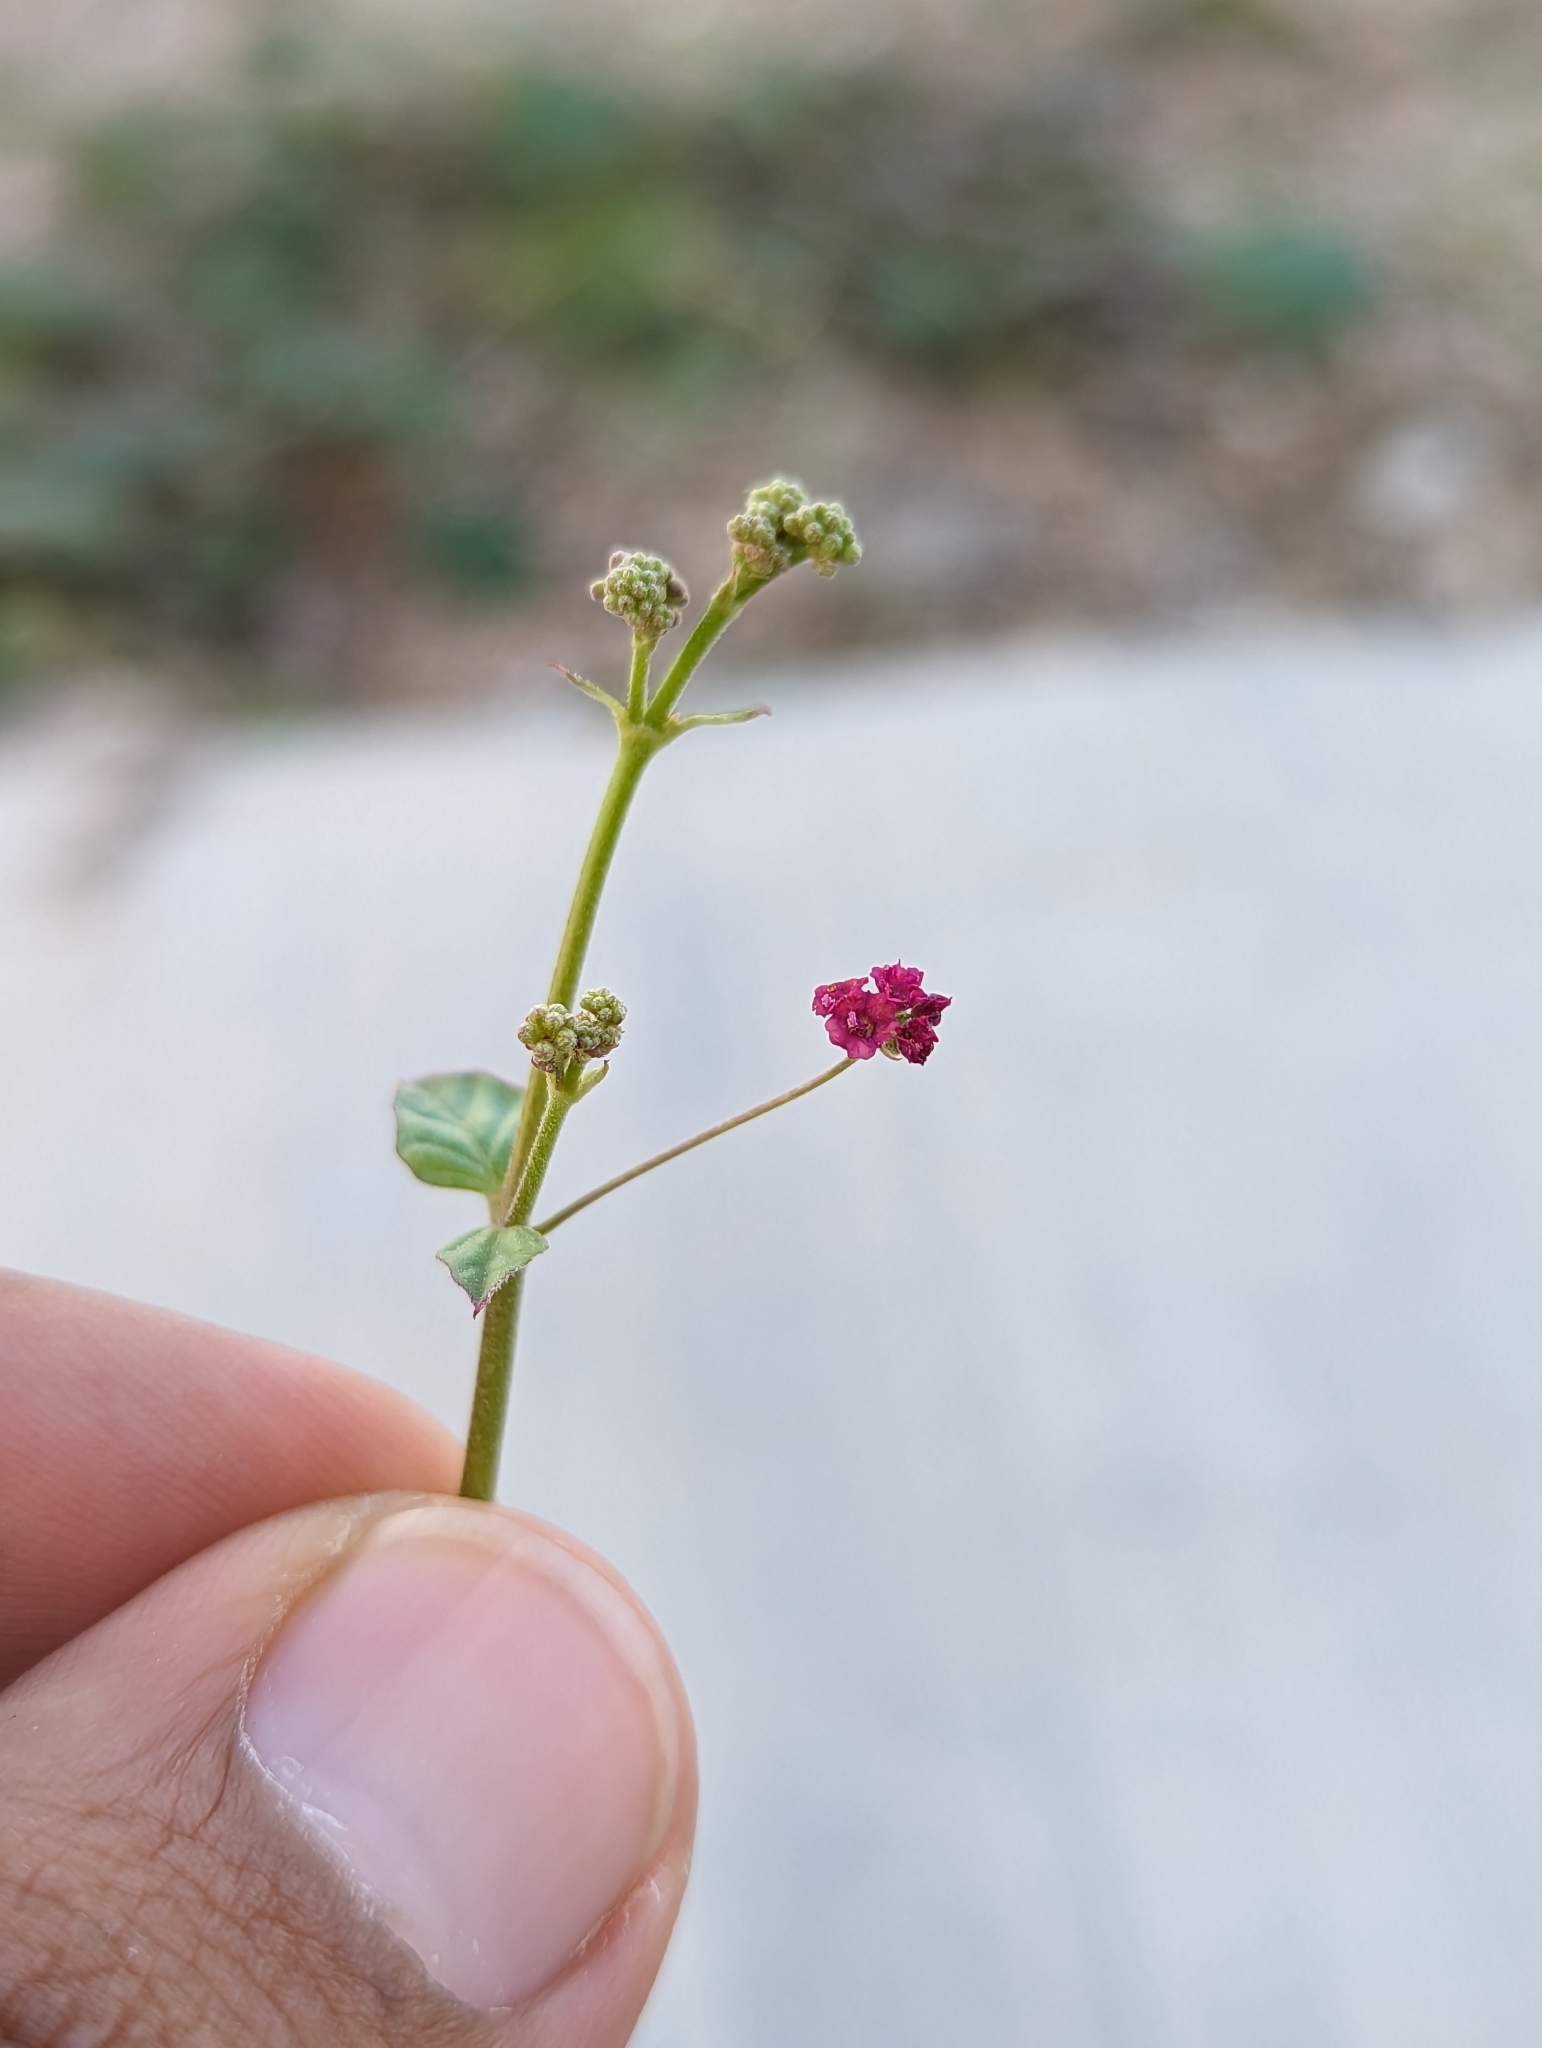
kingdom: Plantae
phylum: Tracheophyta
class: Magnoliopsida
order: Caryophyllales
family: Nyctaginaceae
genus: Boerhavia
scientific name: Boerhavia coccinea
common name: Scarlet spiderling
